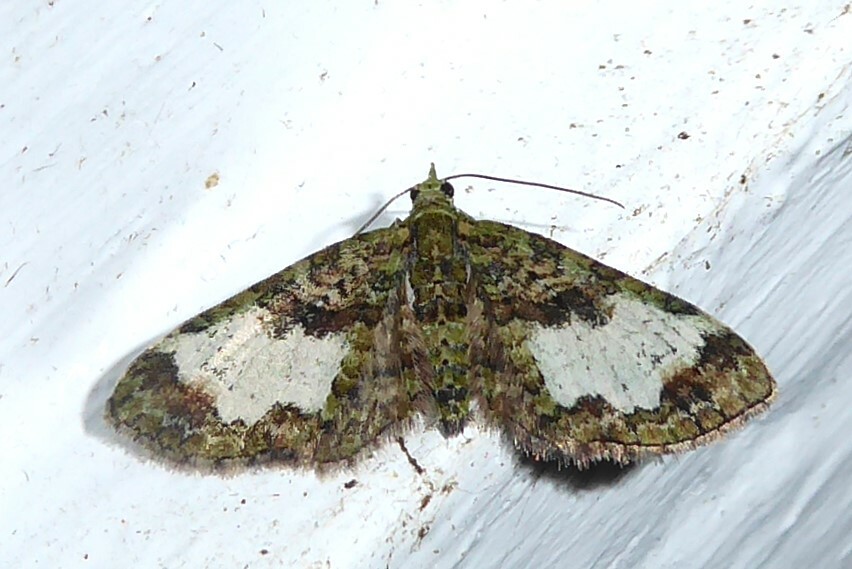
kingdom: Animalia
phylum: Arthropoda
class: Insecta
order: Lepidoptera
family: Geometridae
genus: Idaea
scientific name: Idaea mutanda
